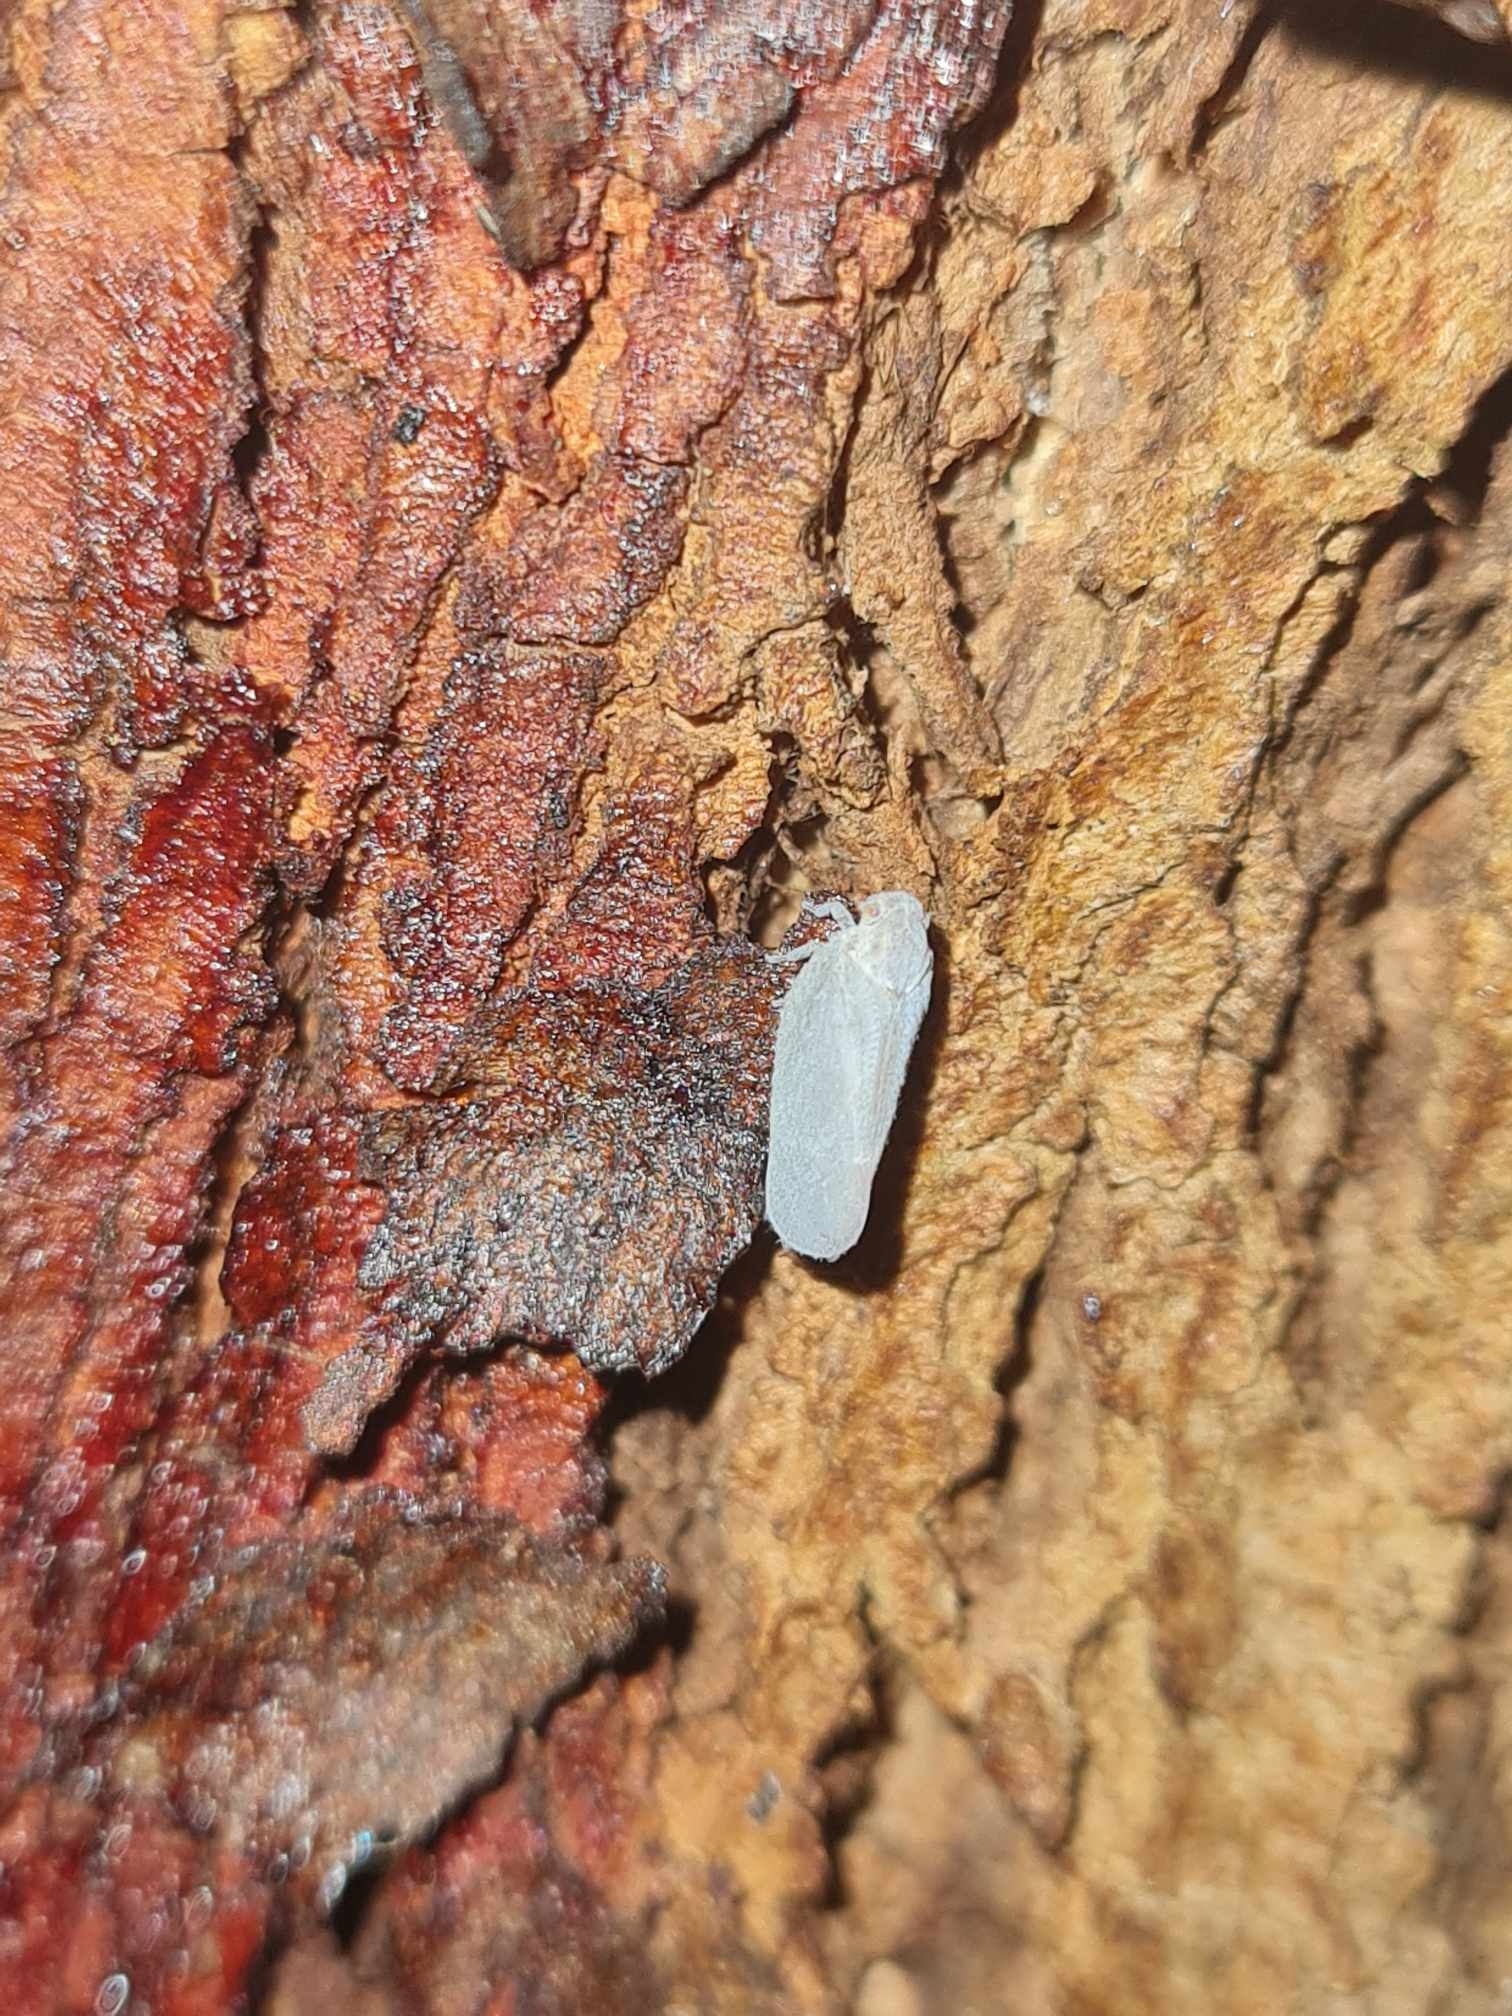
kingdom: Animalia
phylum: Arthropoda
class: Insecta
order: Hemiptera
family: Flatidae
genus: Anzora
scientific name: Anzora unicolor
